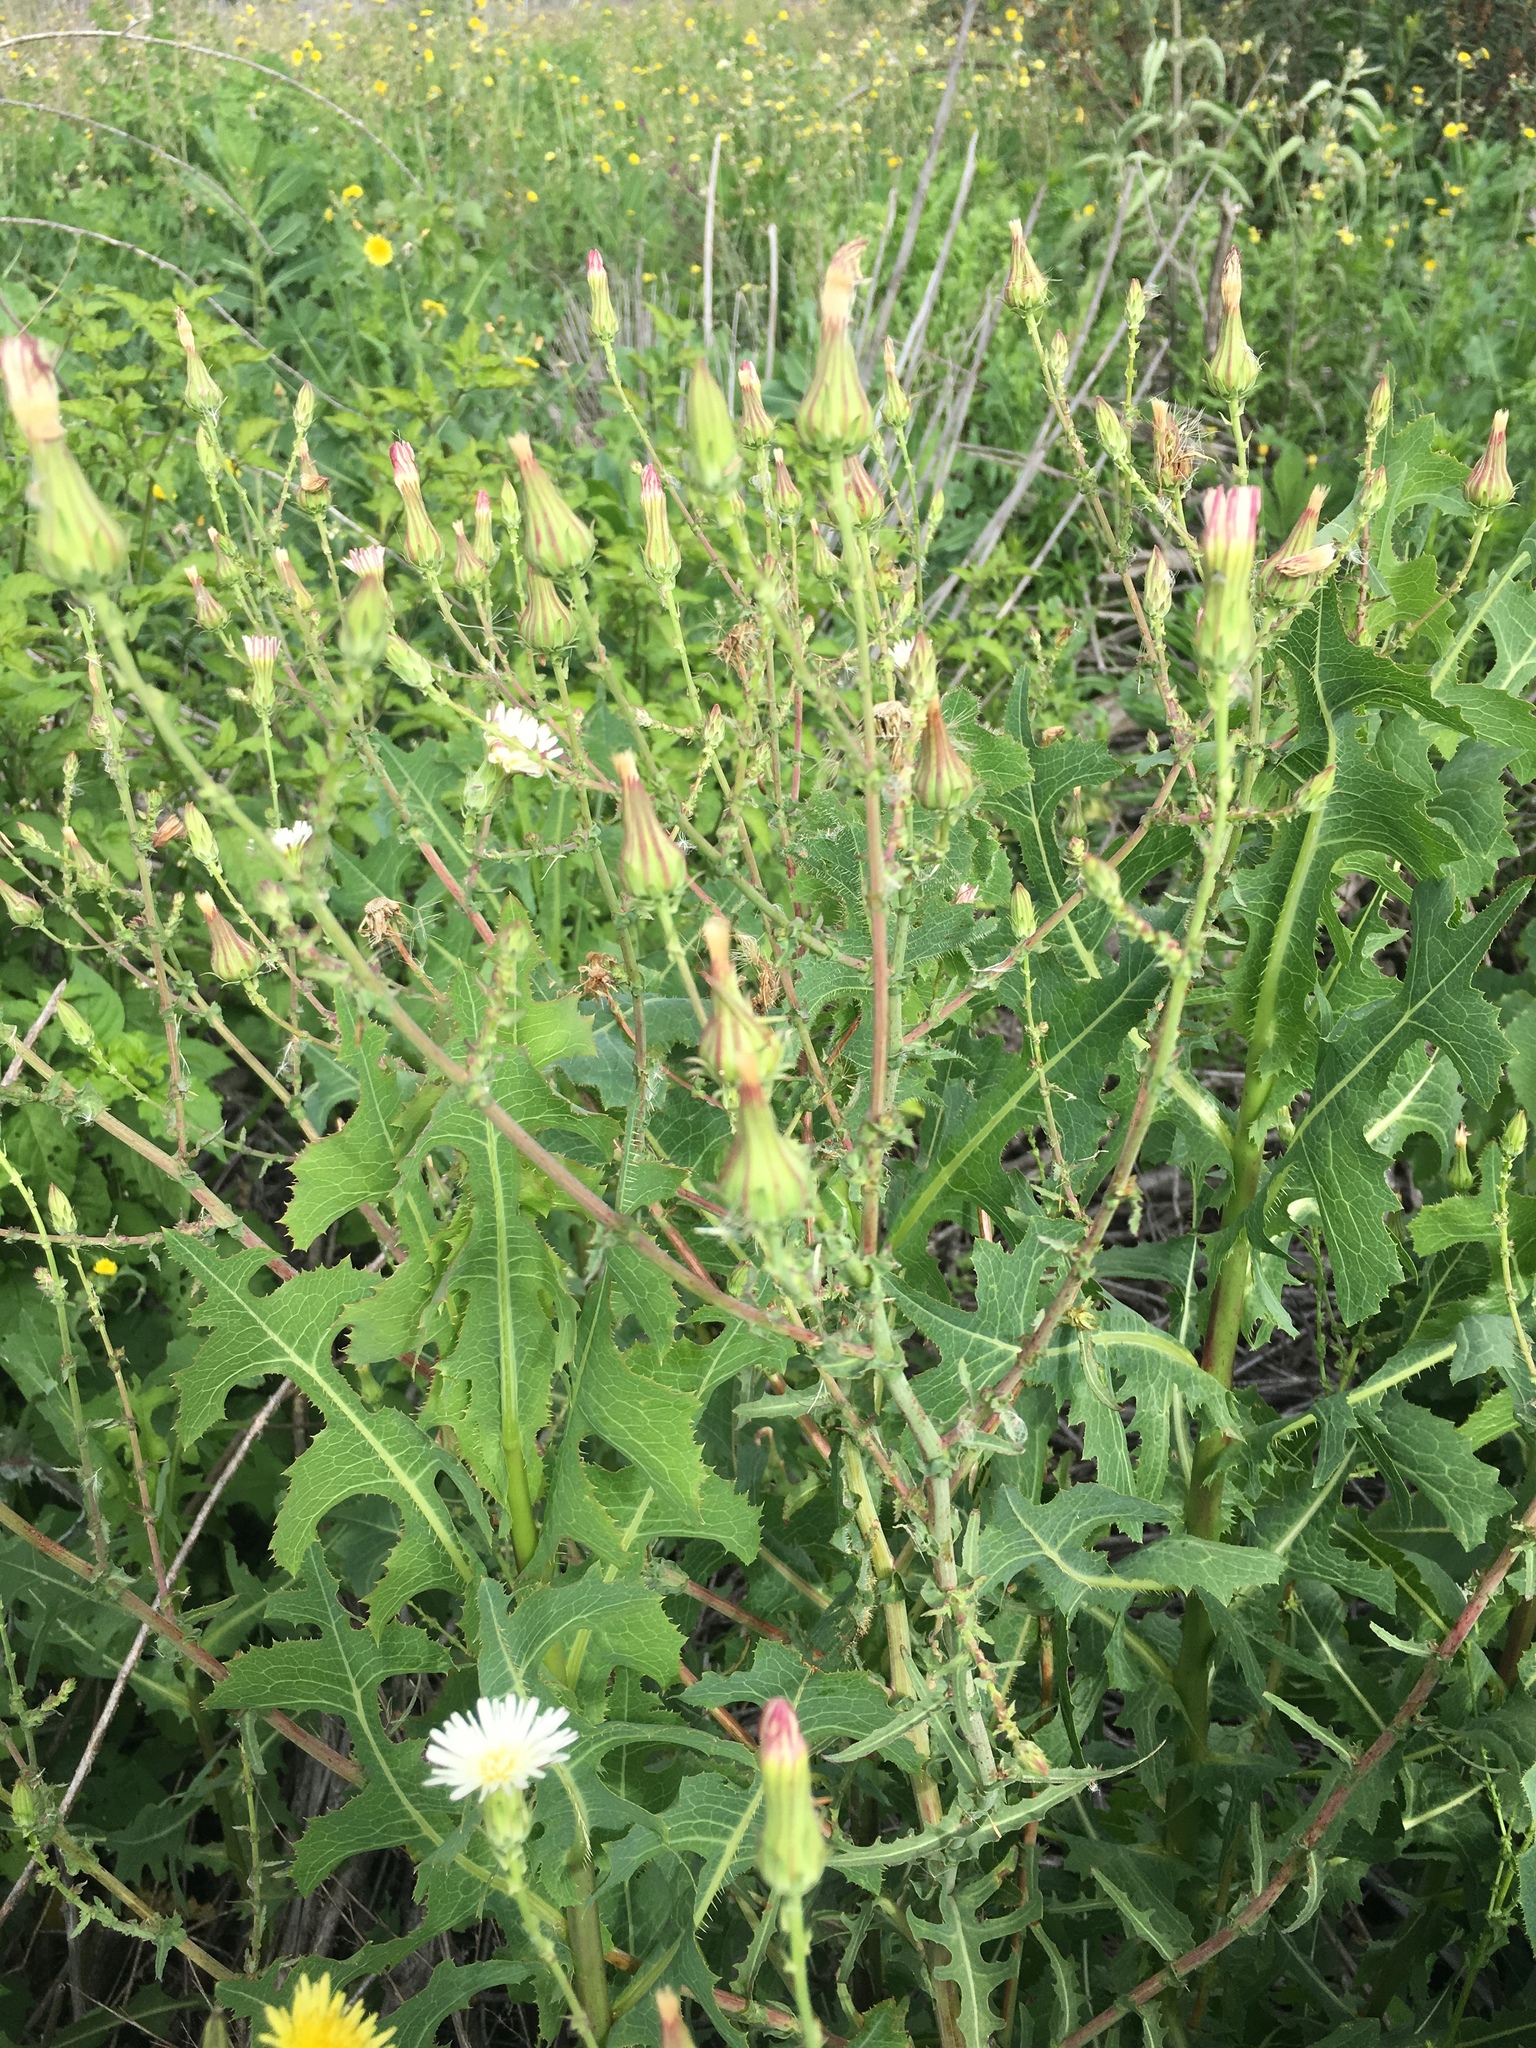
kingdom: Plantae
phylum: Tracheophyta
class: Magnoliopsida
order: Asterales
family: Asteraceae
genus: Rafinesquia
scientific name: Rafinesquia californica
